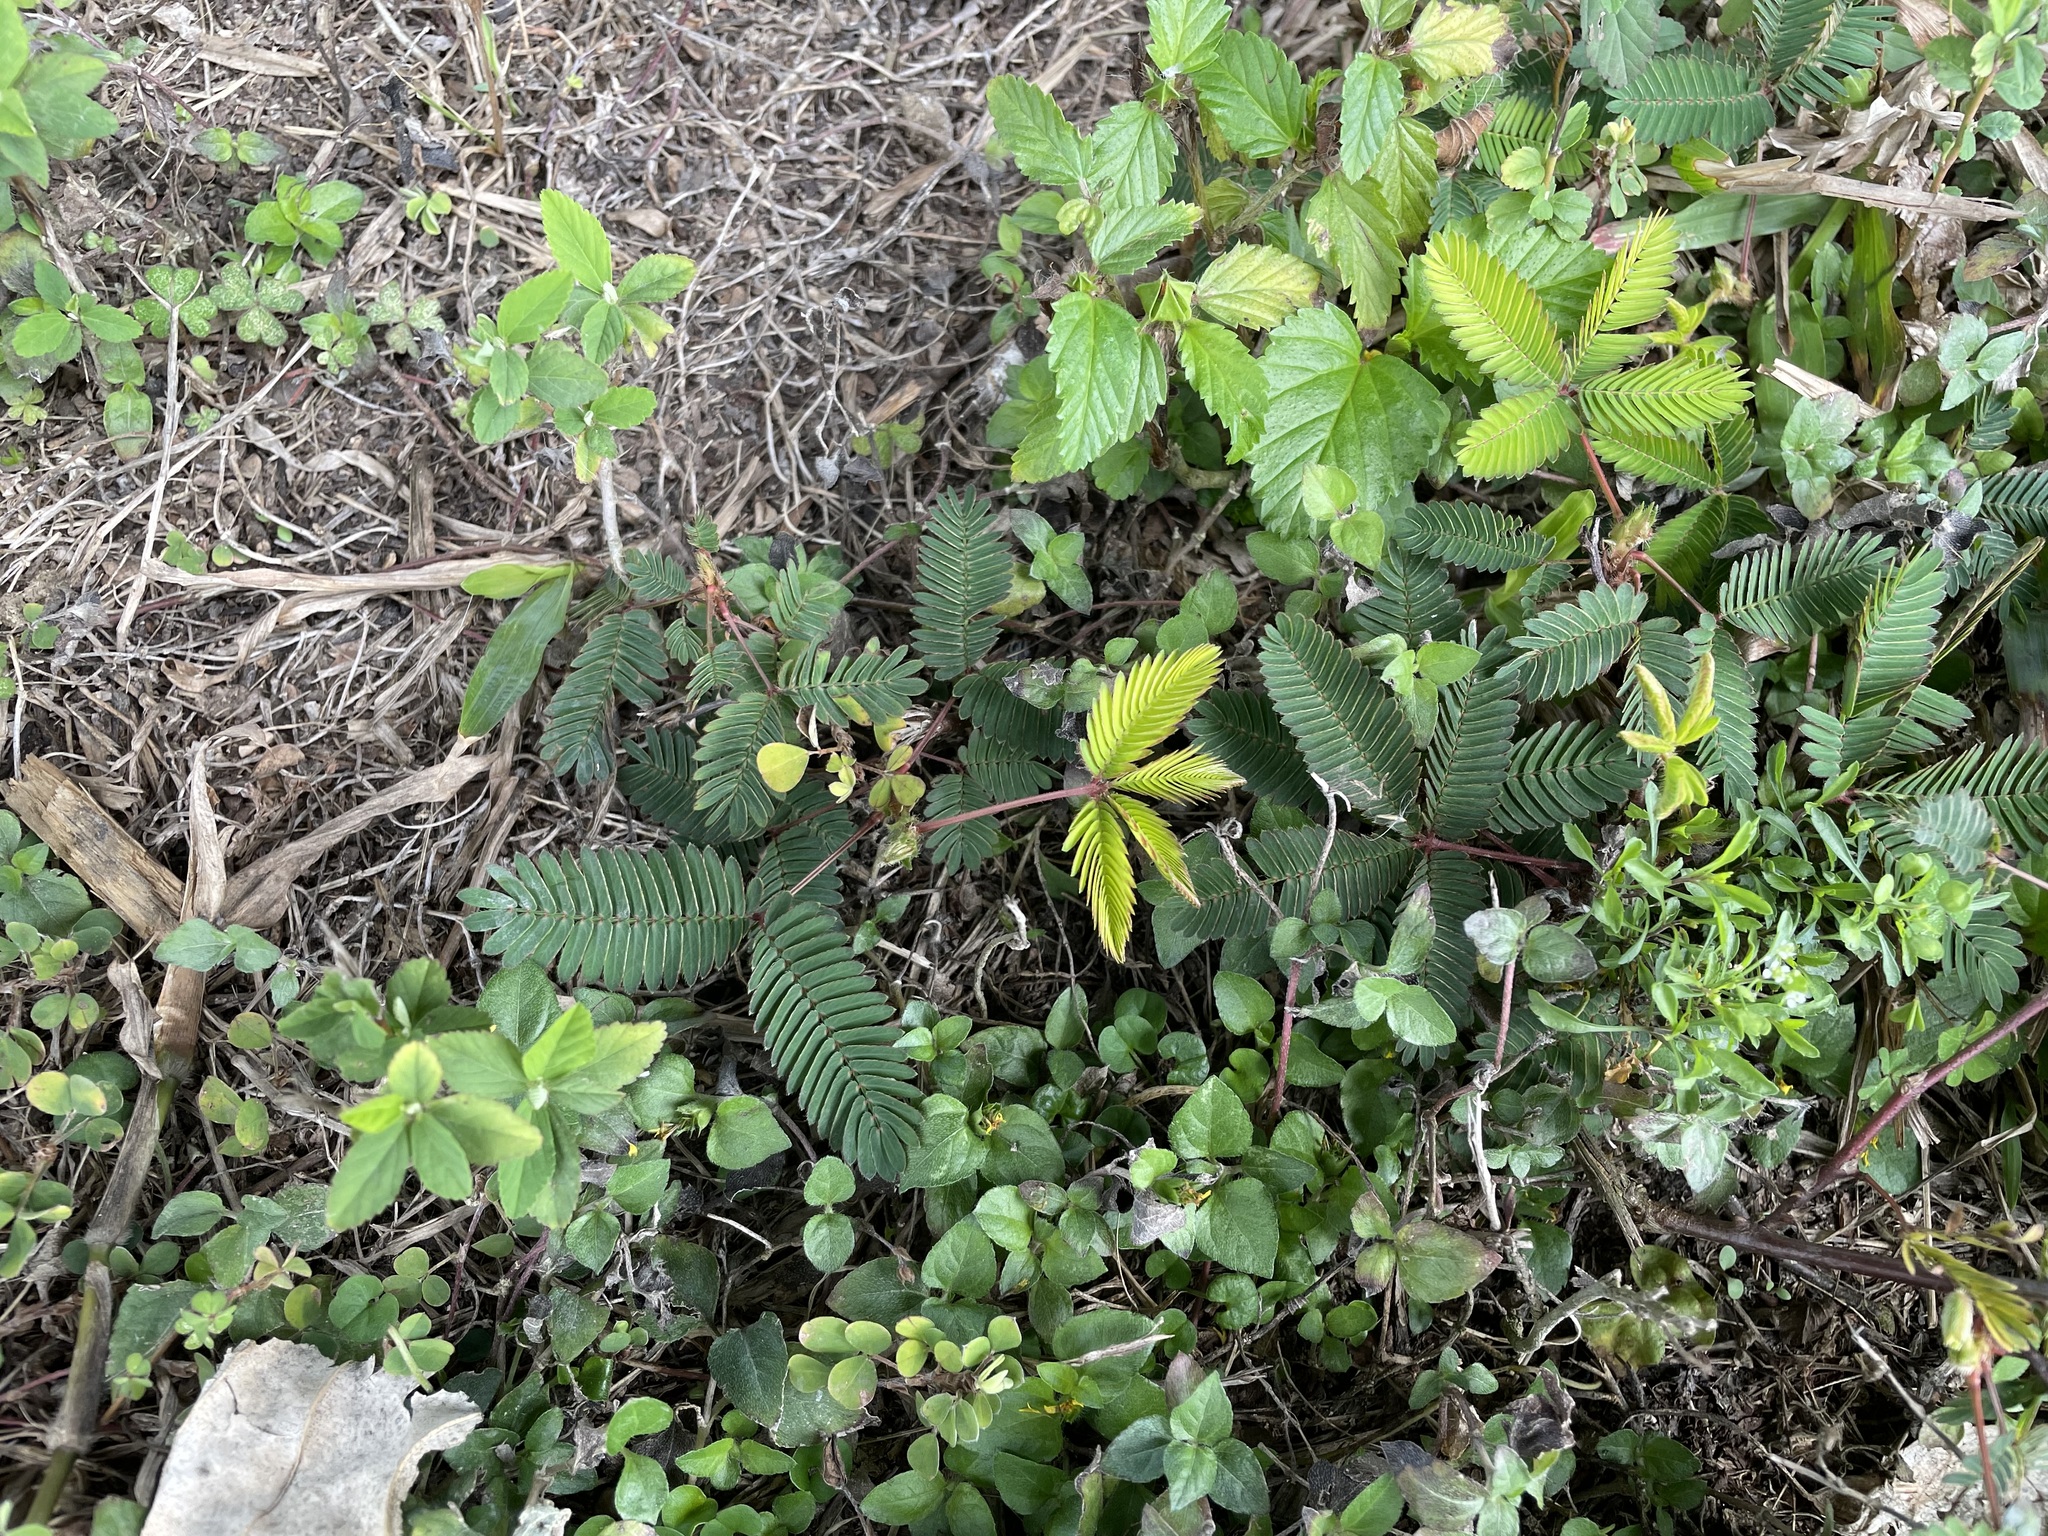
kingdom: Plantae
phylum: Tracheophyta
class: Magnoliopsida
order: Fabales
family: Fabaceae
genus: Mimosa
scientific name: Mimosa pudica
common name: Sensitive plant
